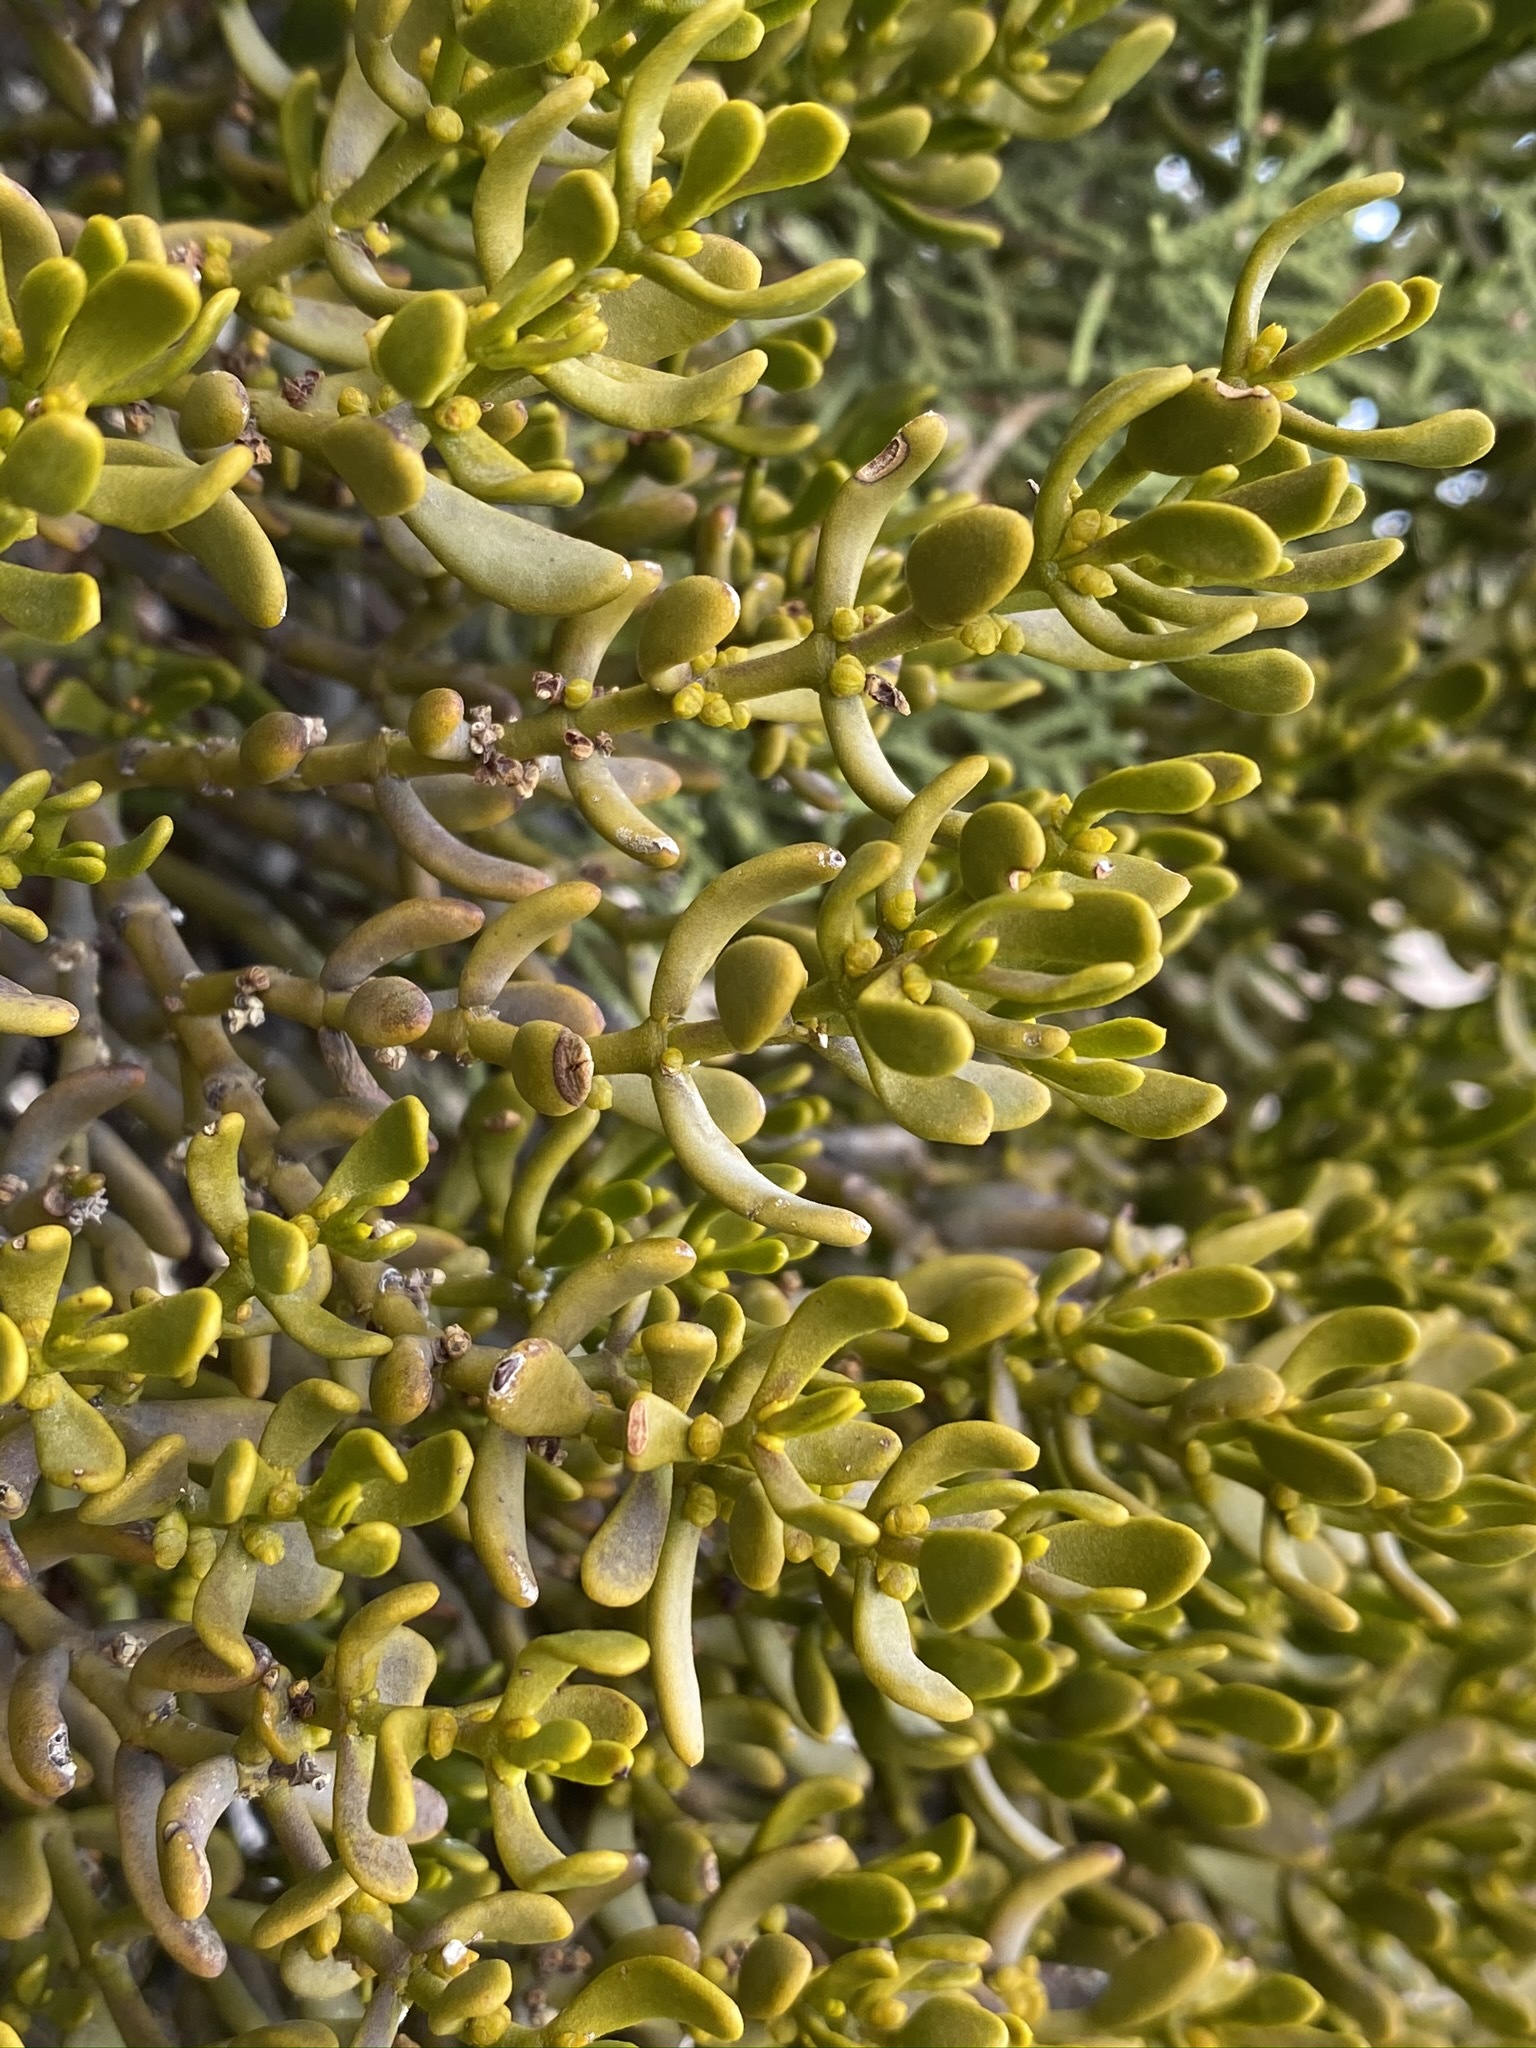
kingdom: Plantae
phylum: Tracheophyta
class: Magnoliopsida
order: Santalales
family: Viscaceae
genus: Phoradendron
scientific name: Phoradendron bolleanum
